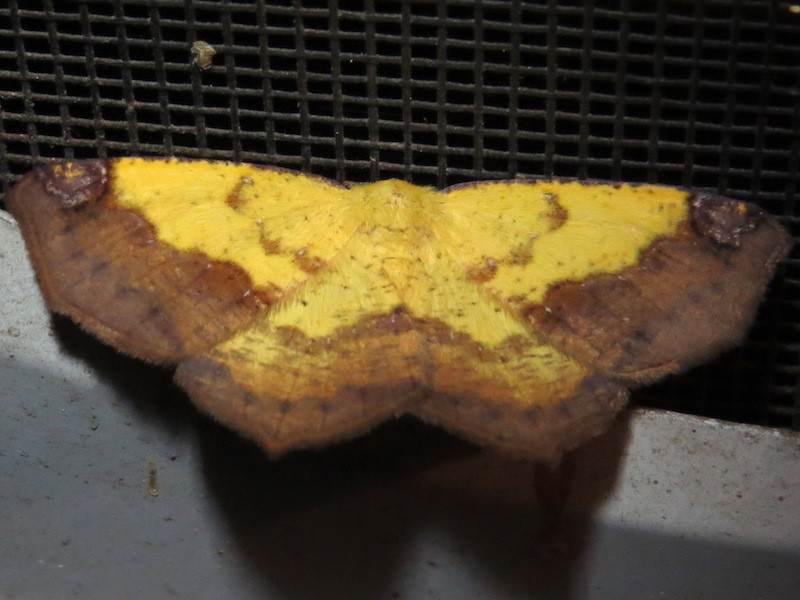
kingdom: Animalia
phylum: Arthropoda
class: Insecta
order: Lepidoptera
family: Geometridae
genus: Antepione
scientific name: Antepione thisoaria
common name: Variable antipione
